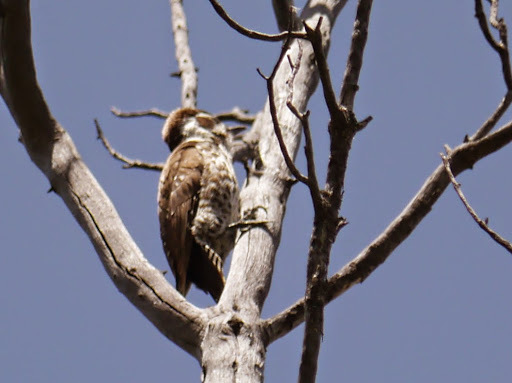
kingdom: Animalia
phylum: Chordata
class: Aves
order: Piciformes
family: Picidae
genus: Leuconotopicus
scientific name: Leuconotopicus arizonae
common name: Arizona woodpecker
